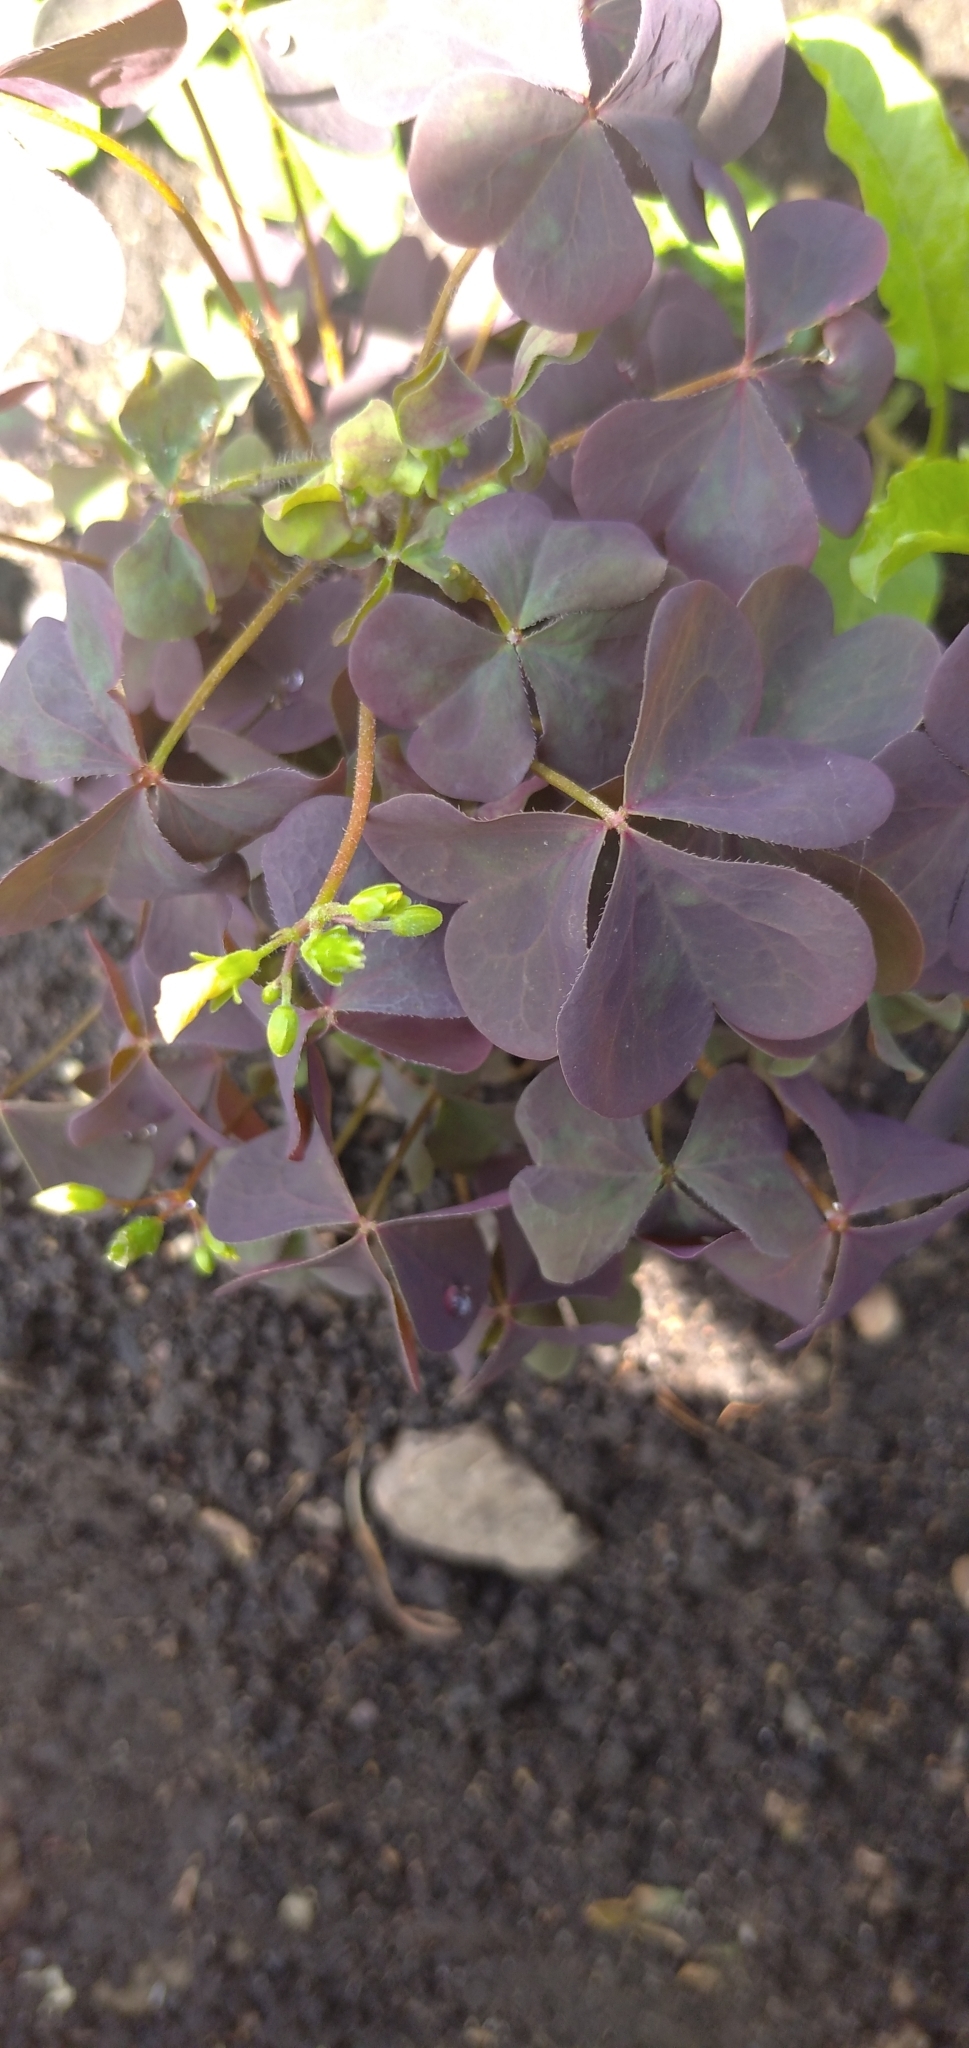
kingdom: Plantae
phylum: Tracheophyta
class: Magnoliopsida
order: Oxalidales
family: Oxalidaceae
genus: Oxalis
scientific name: Oxalis stricta
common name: Upright yellow-sorrel
